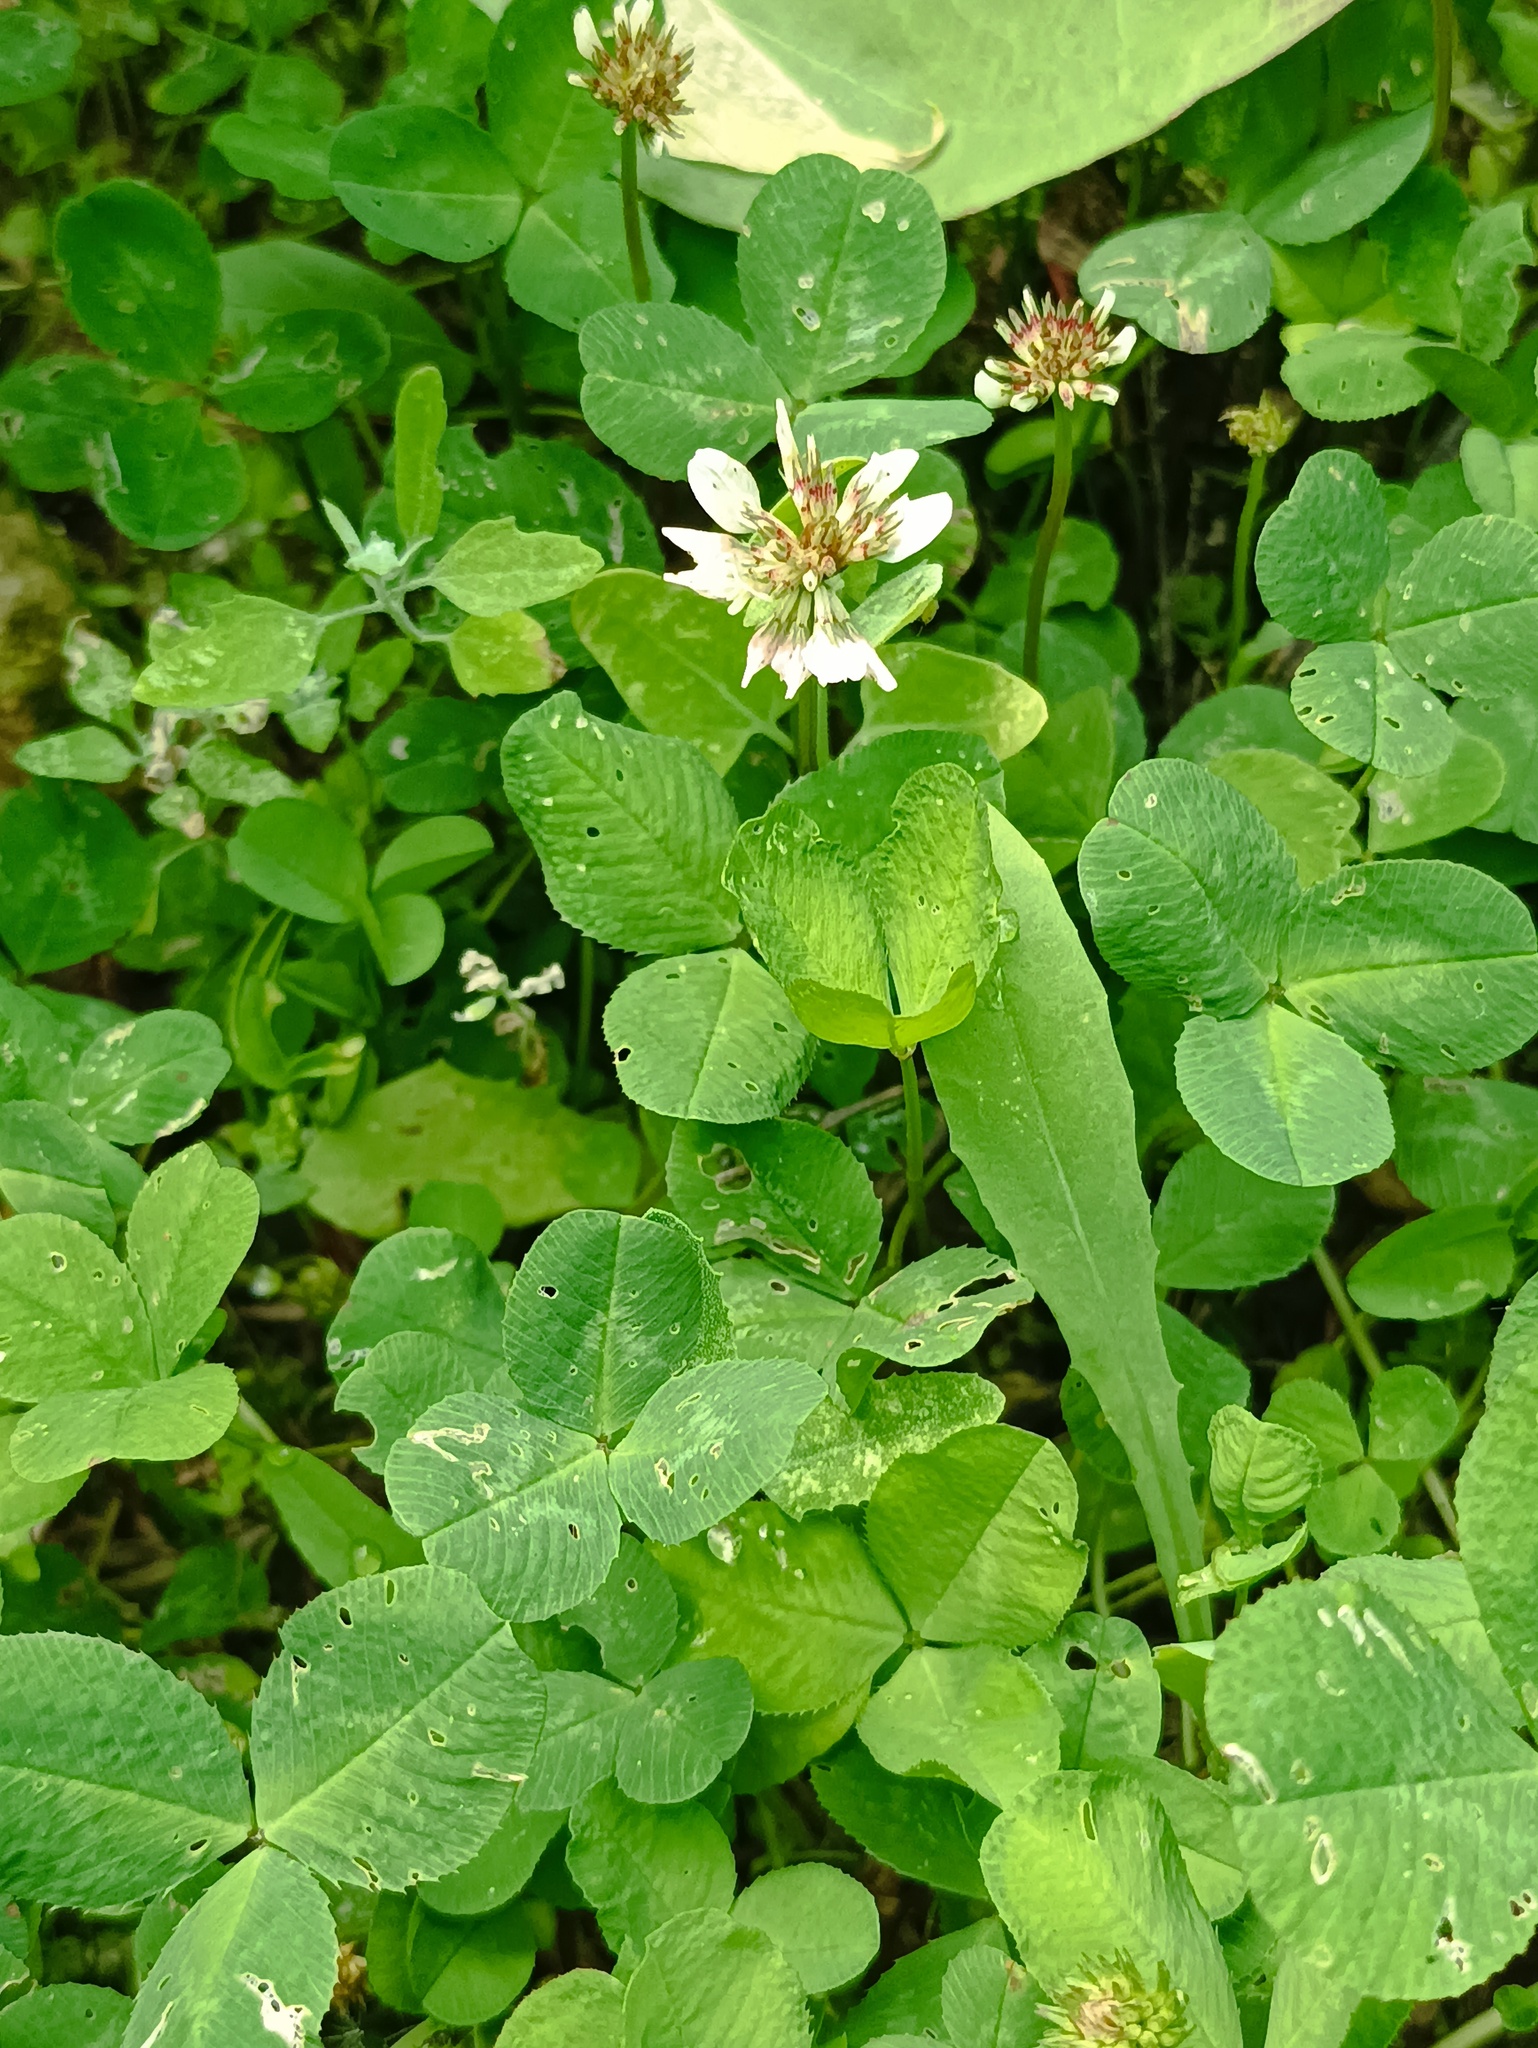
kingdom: Plantae
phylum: Tracheophyta
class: Magnoliopsida
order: Fabales
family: Fabaceae
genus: Trifolium
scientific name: Trifolium repens
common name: White clover
